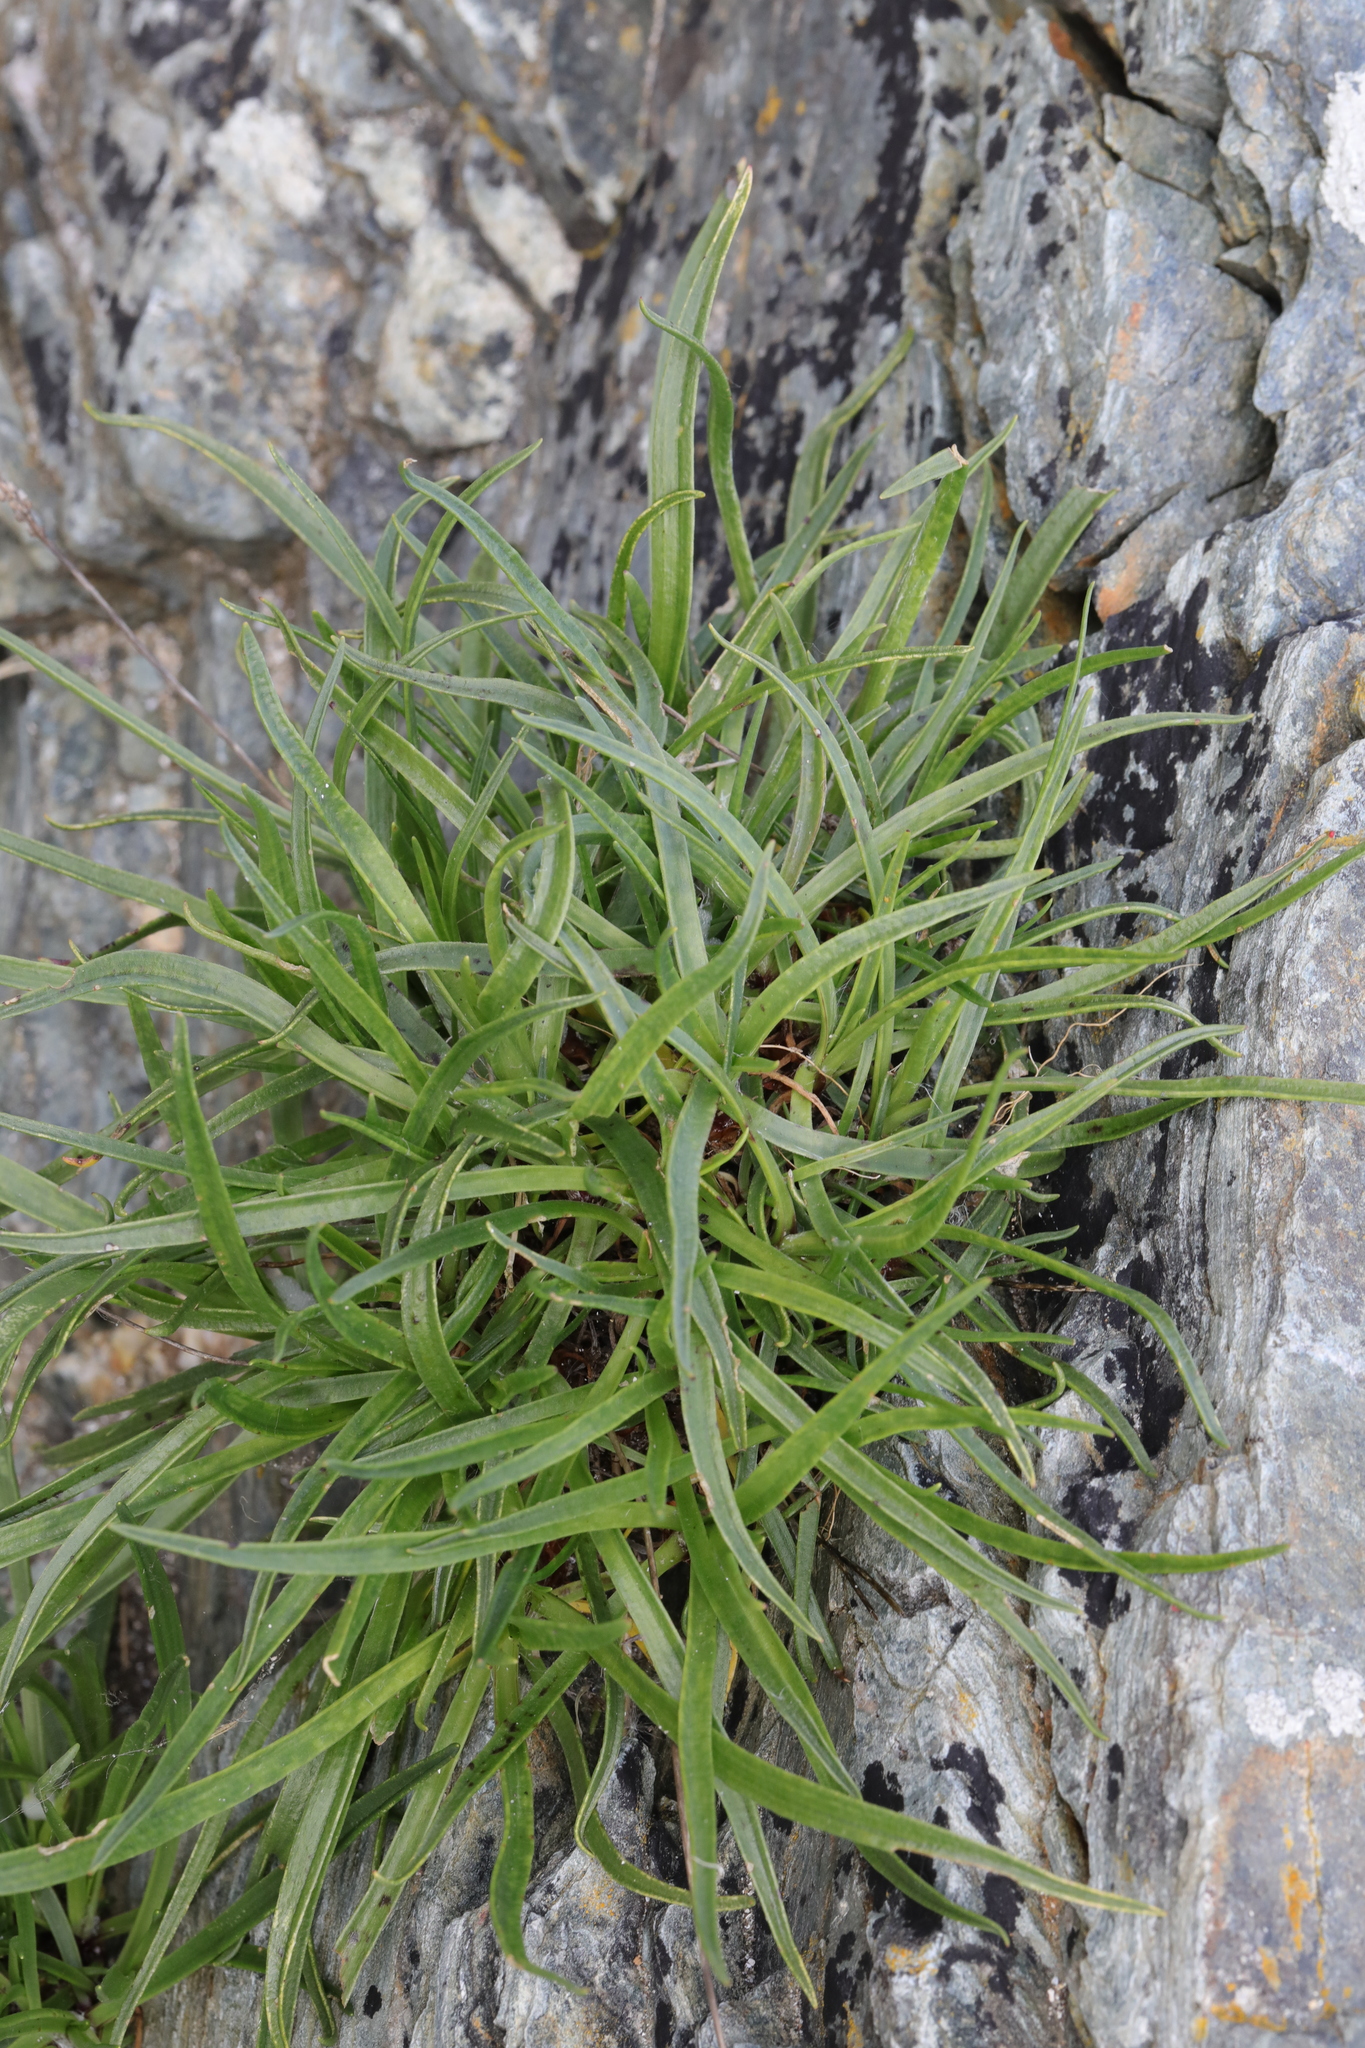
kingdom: Plantae
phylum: Tracheophyta
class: Magnoliopsida
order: Lamiales
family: Plantaginaceae
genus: Plantago
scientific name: Plantago maritima
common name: Sea plantain
